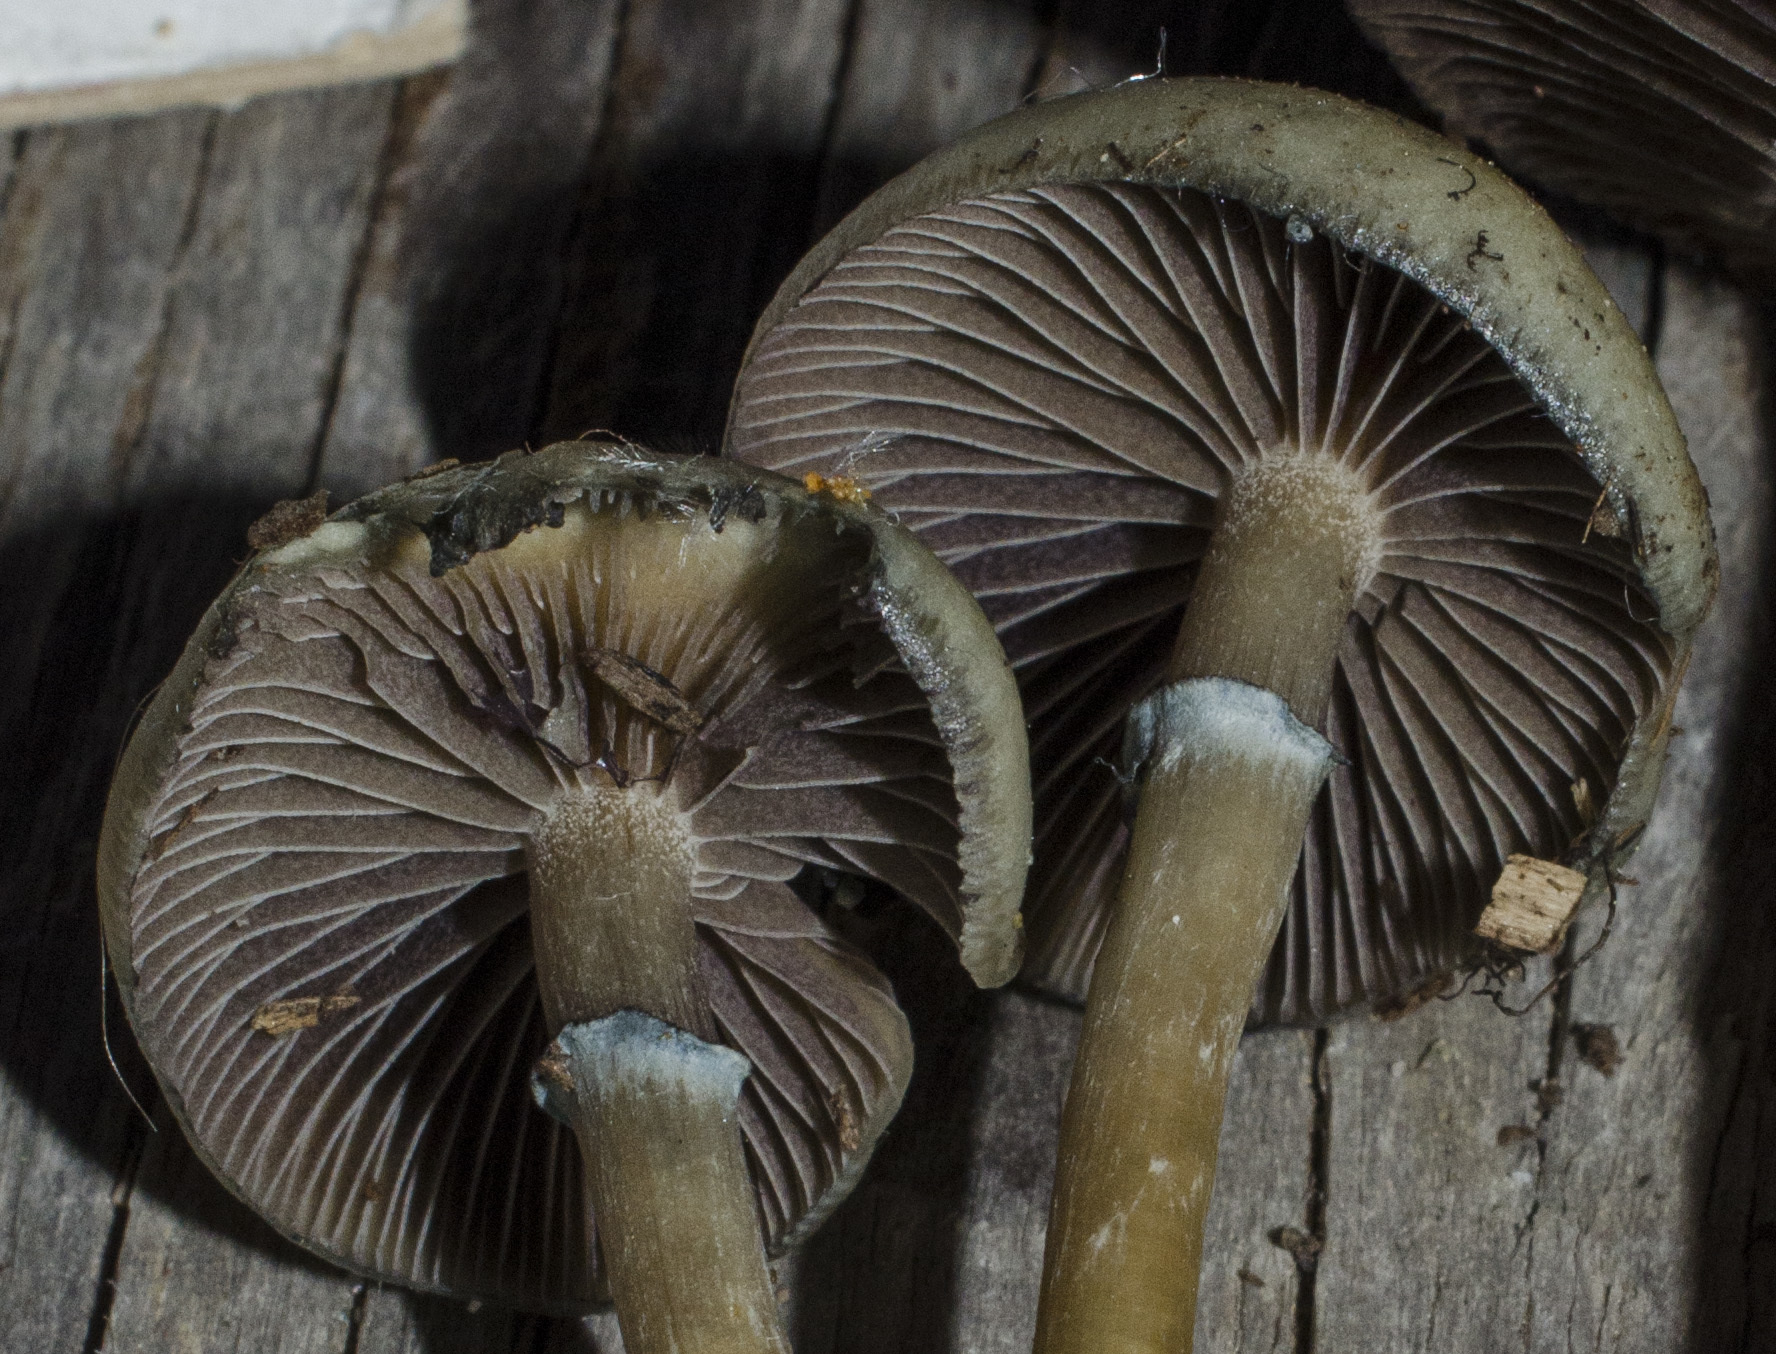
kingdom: Fungi
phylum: Basidiomycota
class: Agaricomycetes
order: Agaricales
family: Hymenogastraceae
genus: Psilocybe
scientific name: Psilocybe stuntzii
